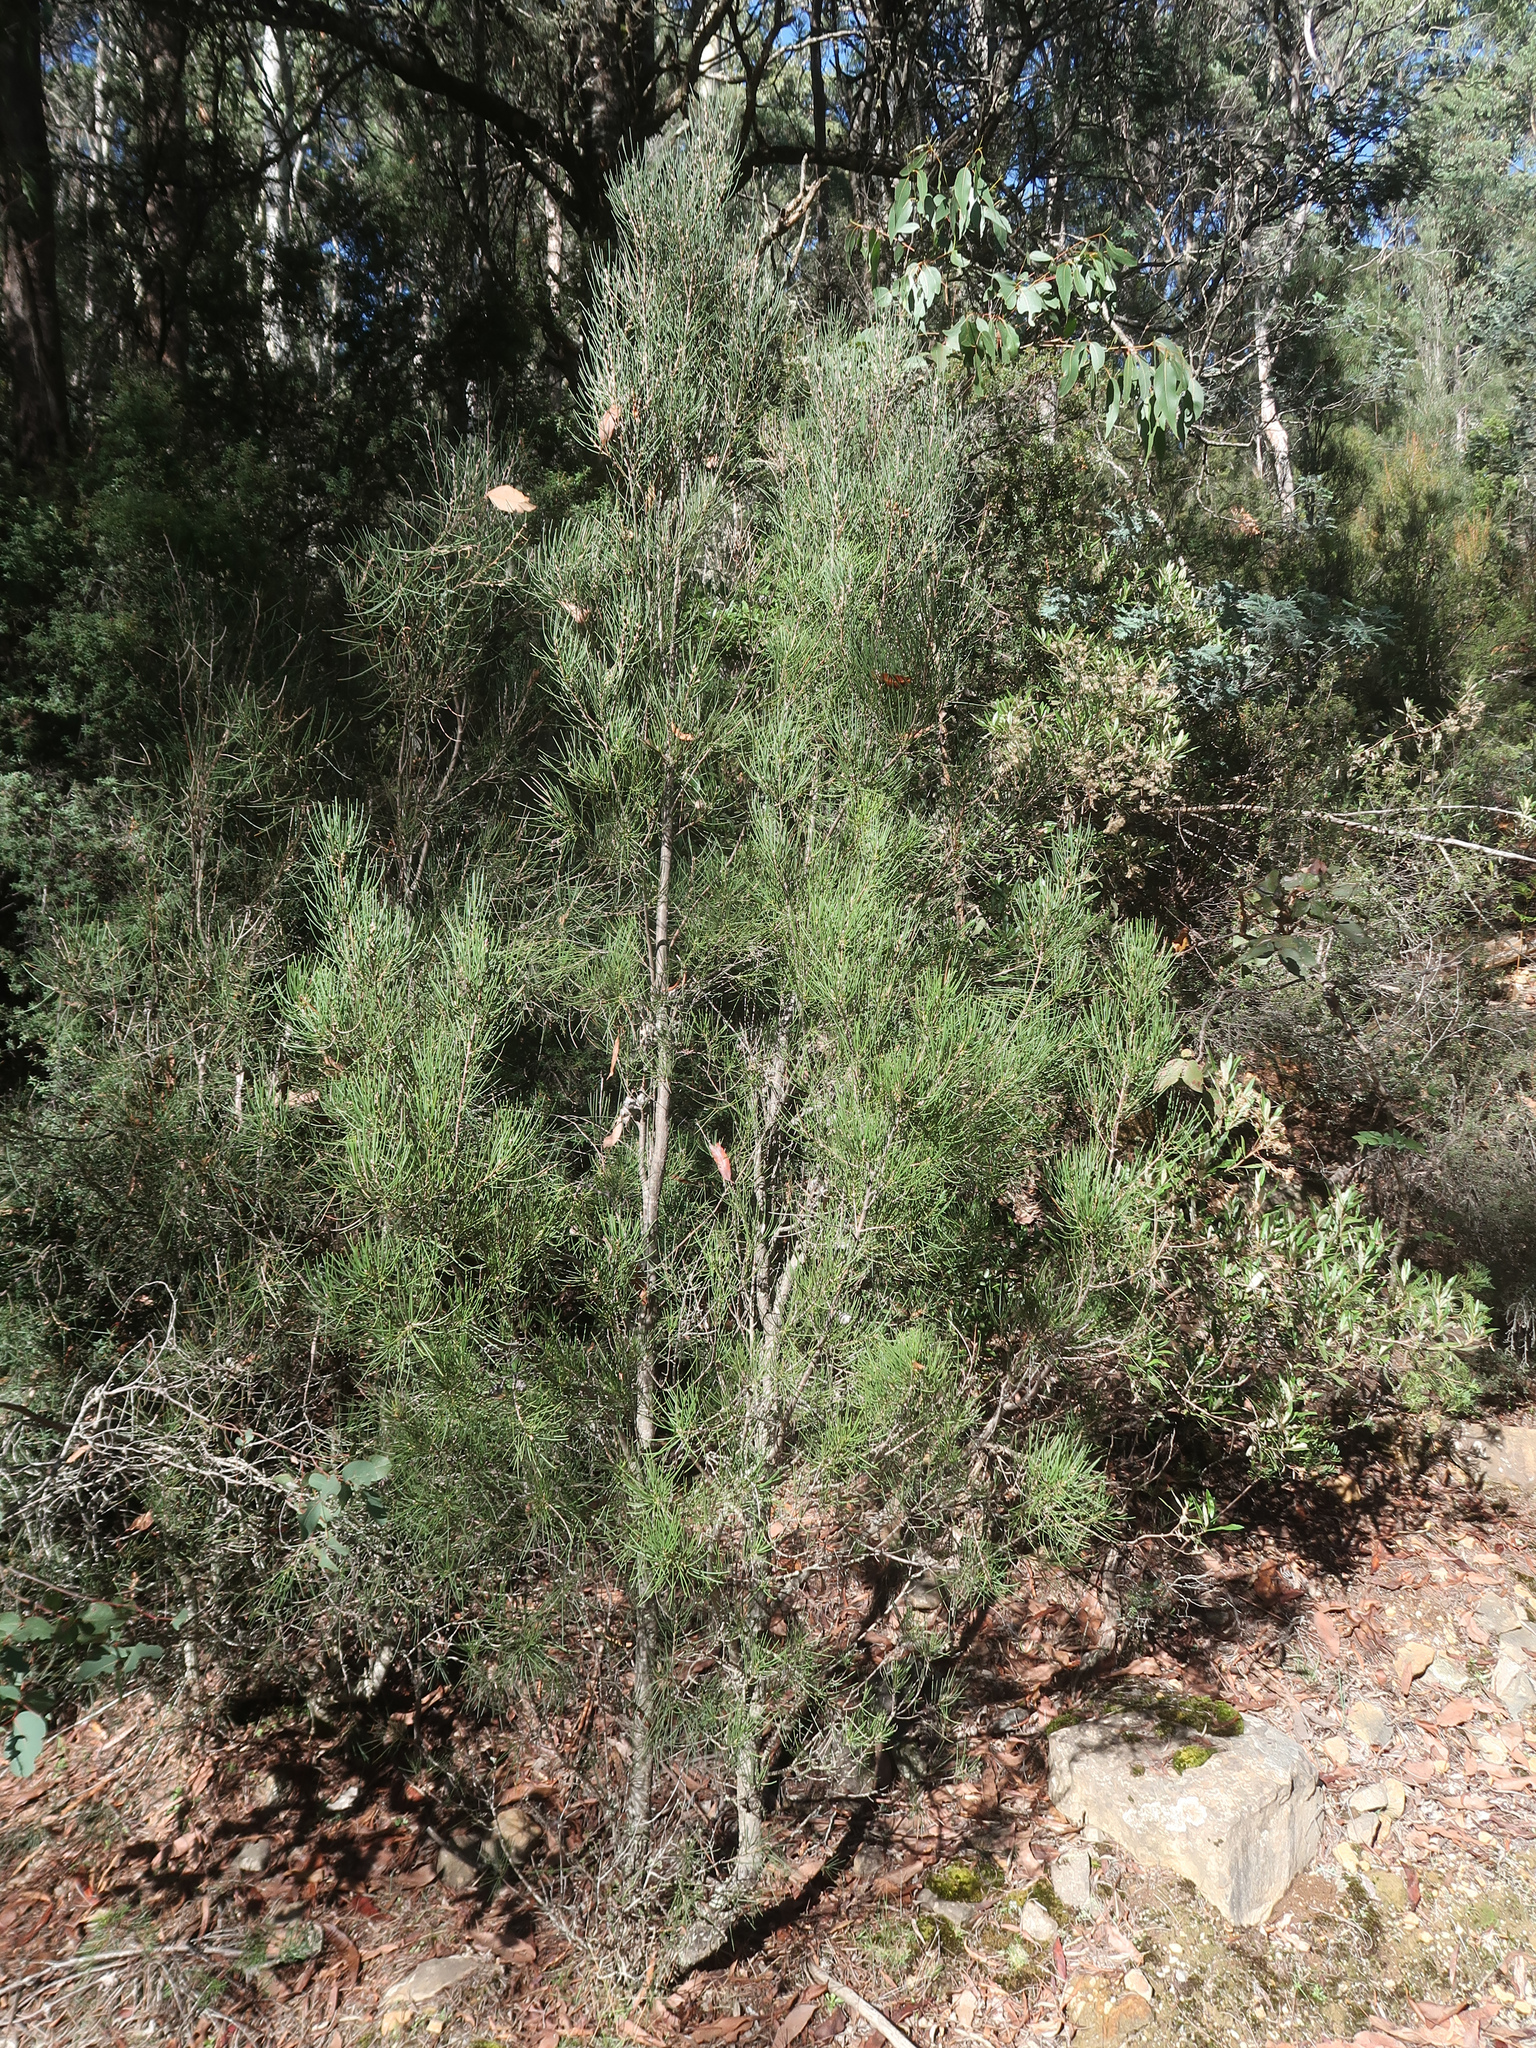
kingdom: Plantae
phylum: Tracheophyta
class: Magnoliopsida
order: Proteales
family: Proteaceae
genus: Hakea
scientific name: Hakea lissosperma
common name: Mountain needlewood
